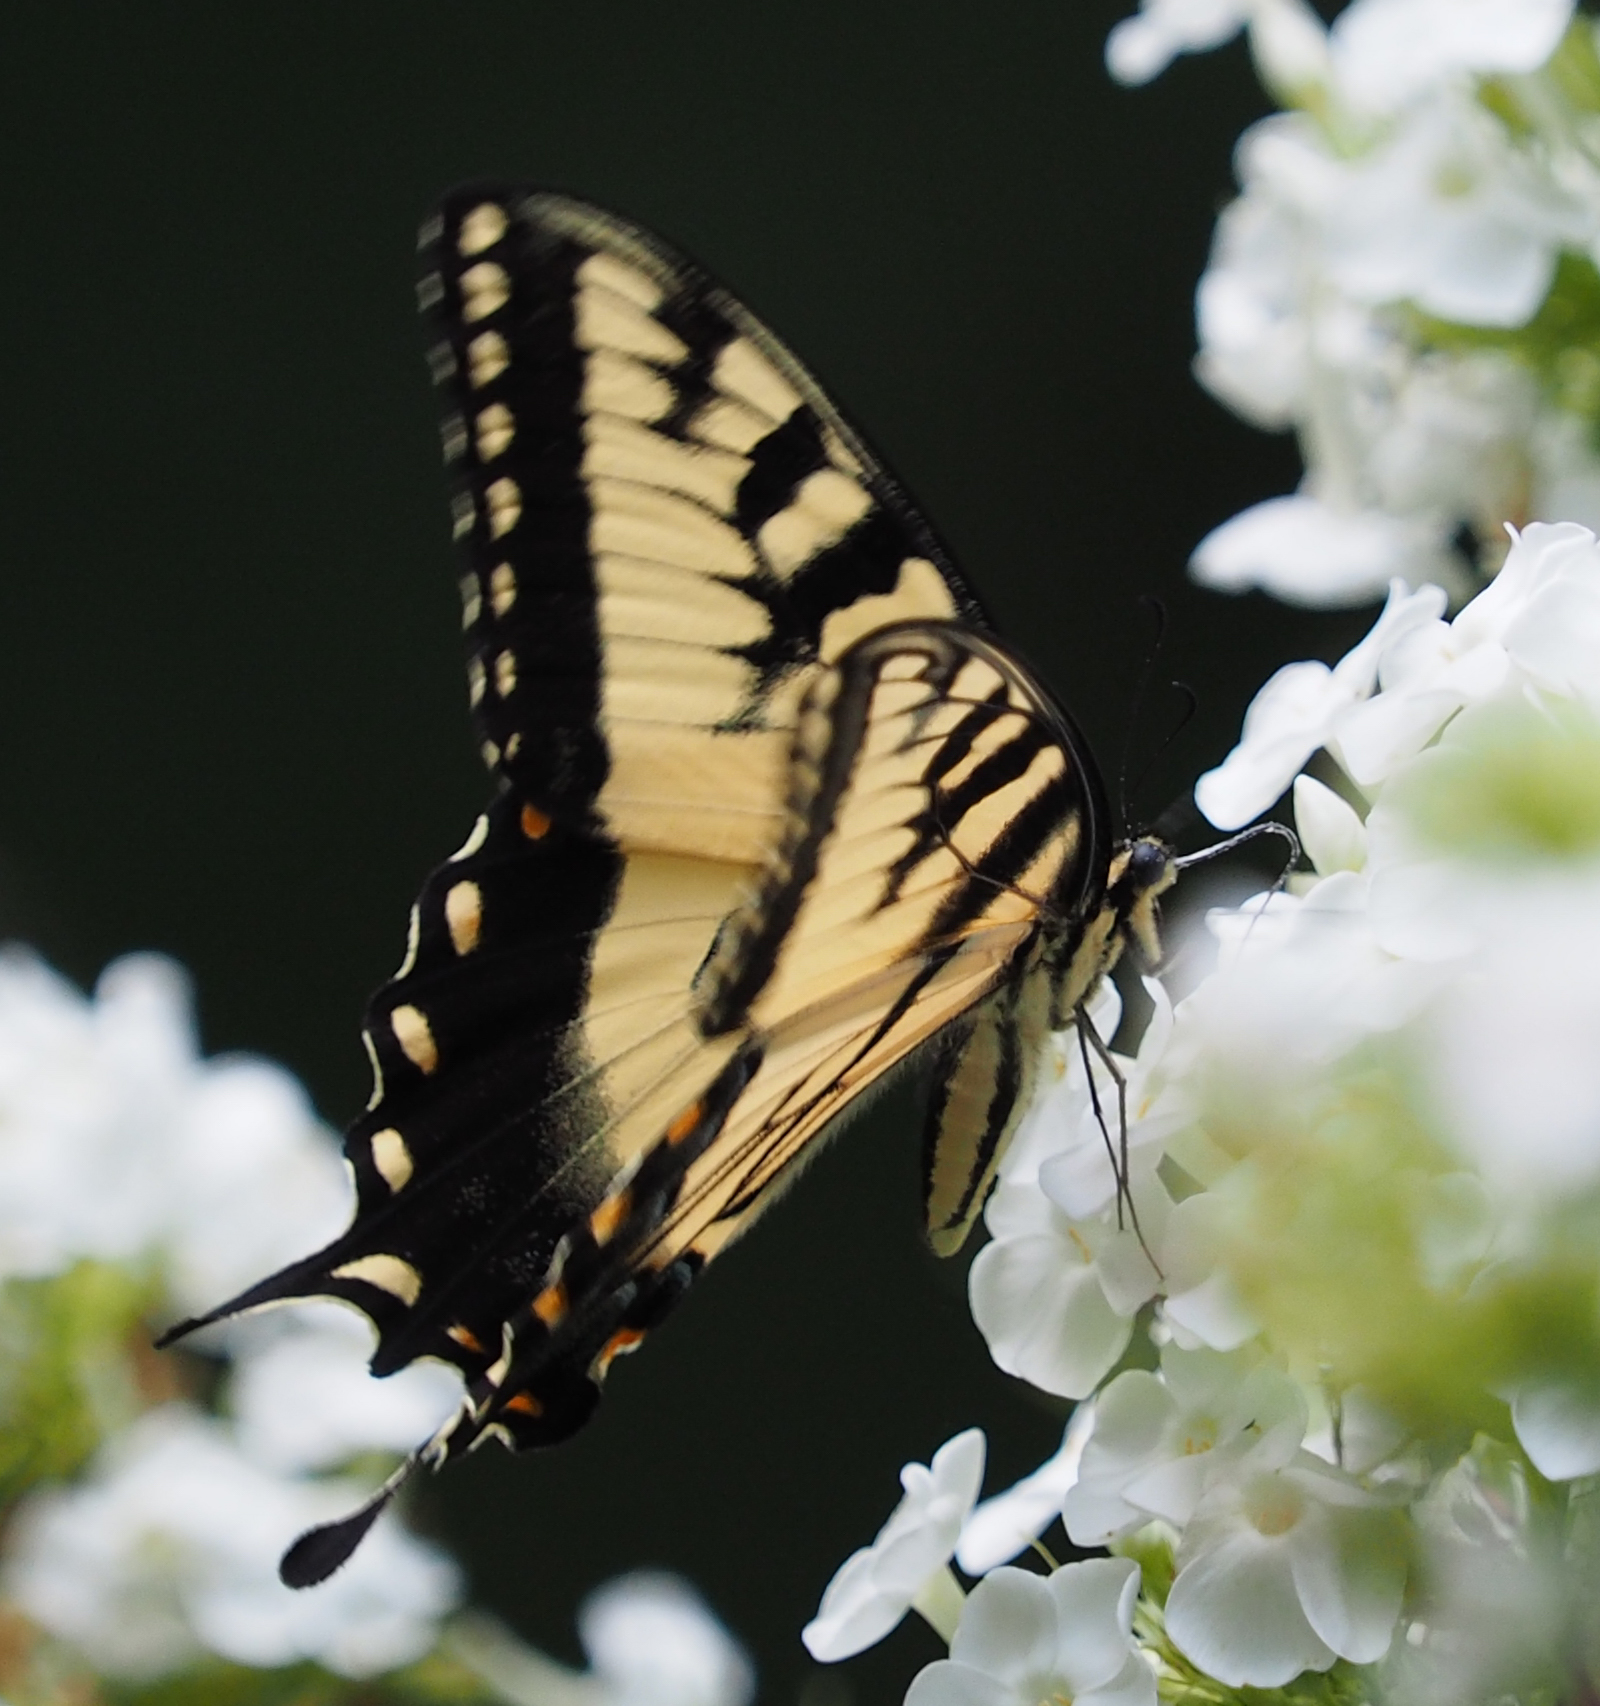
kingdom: Animalia
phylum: Arthropoda
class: Insecta
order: Lepidoptera
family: Papilionidae
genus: Papilio
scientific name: Papilio glaucus
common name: Tiger swallowtail
